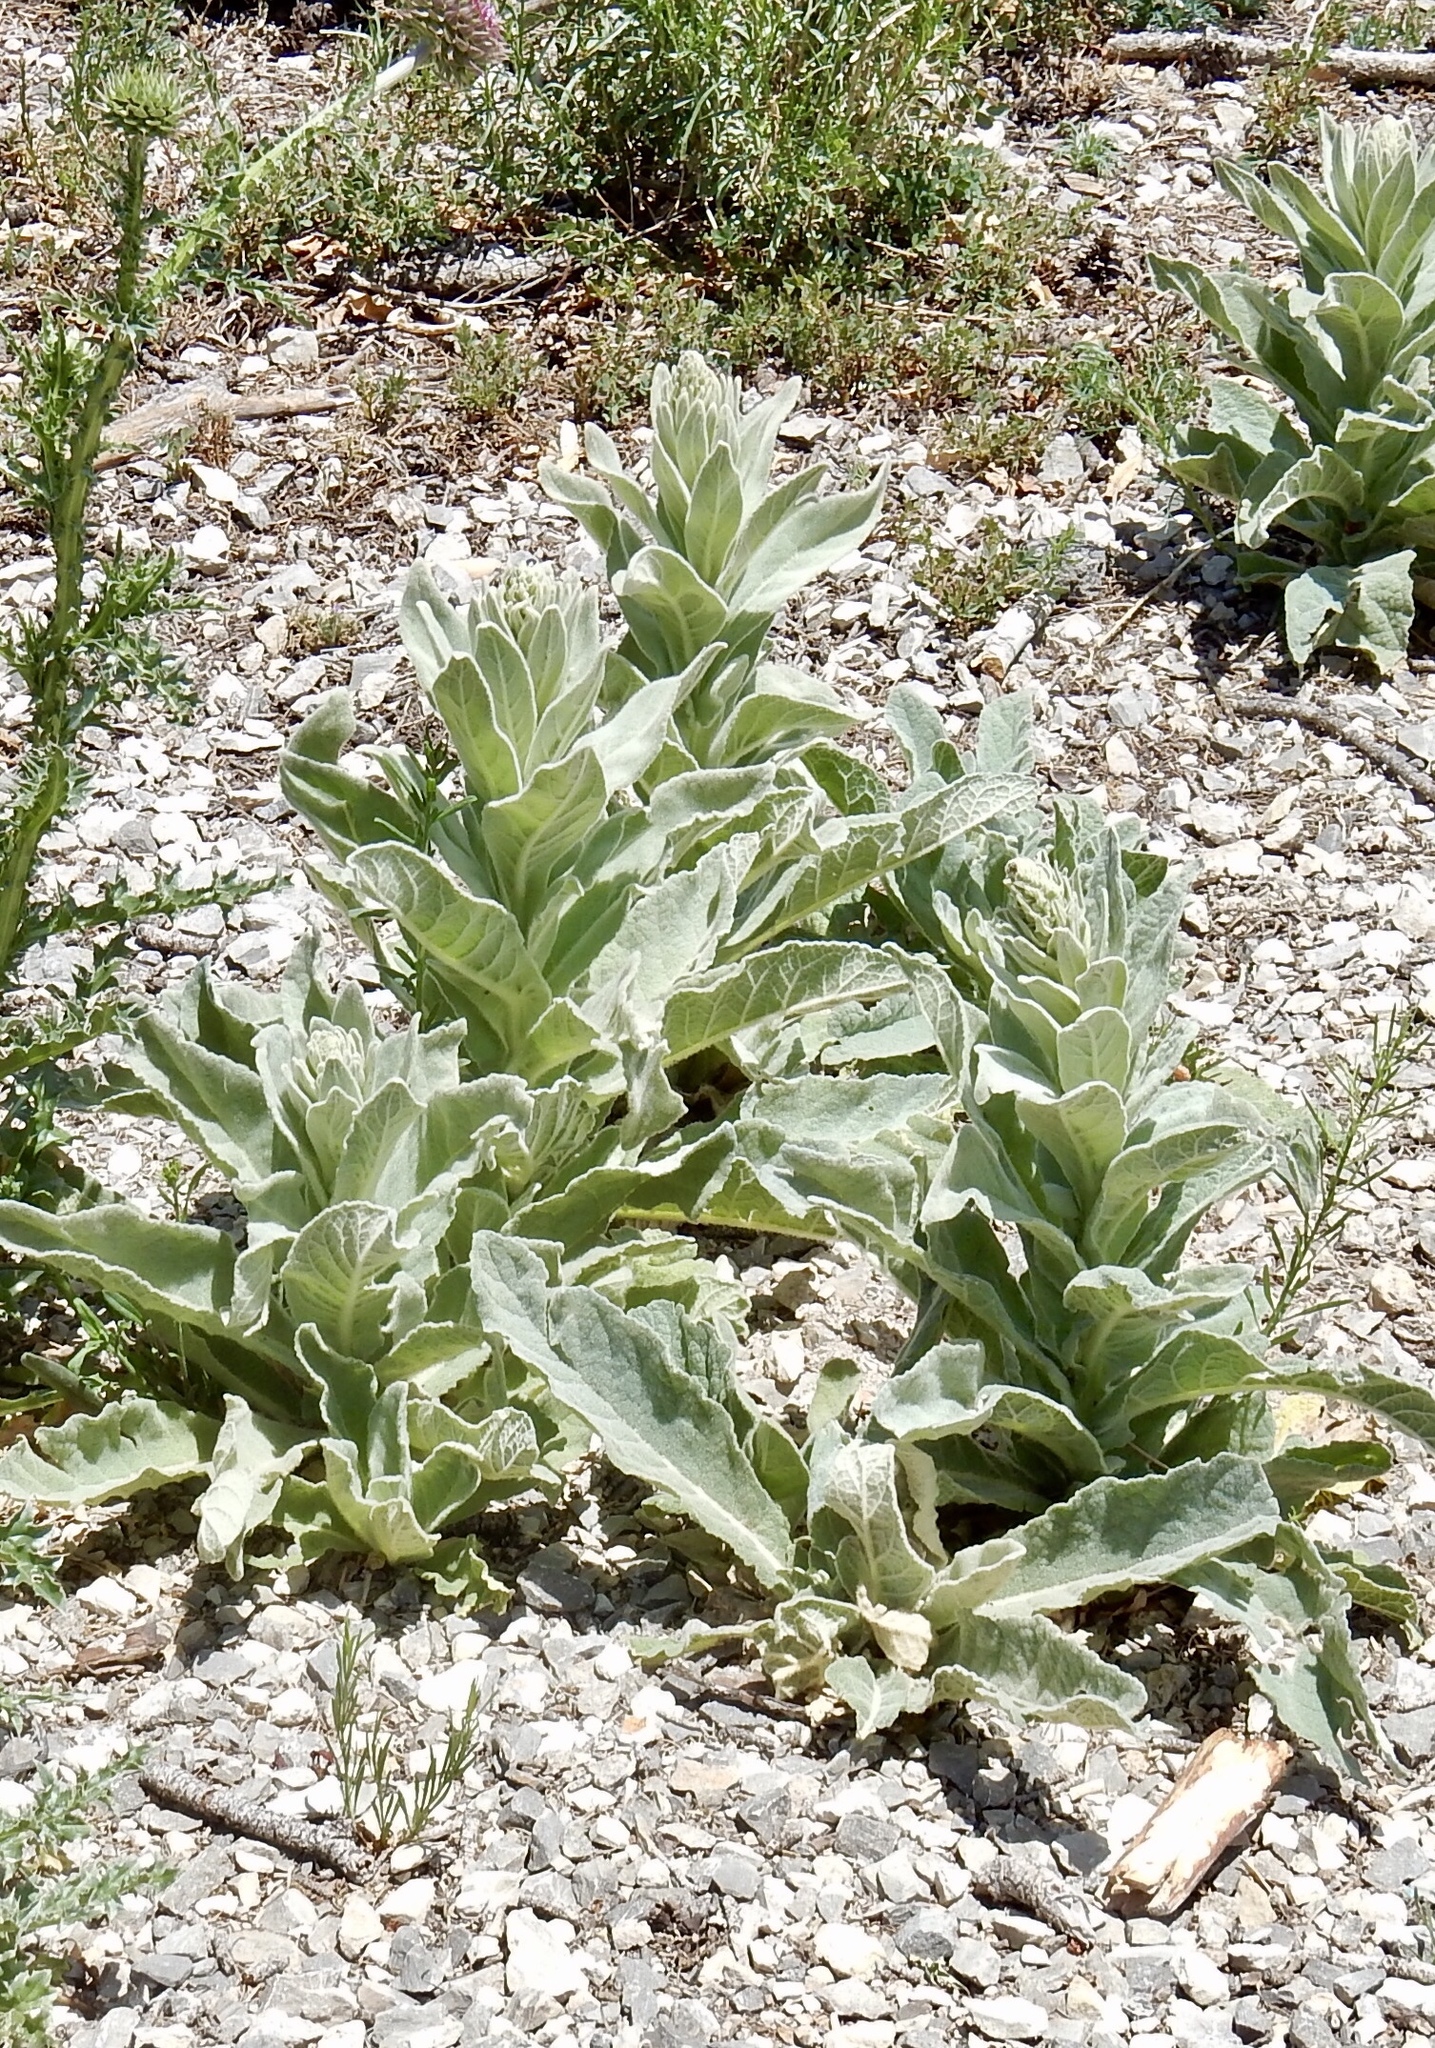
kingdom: Plantae
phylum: Tracheophyta
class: Magnoliopsida
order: Lamiales
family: Scrophulariaceae
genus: Verbascum
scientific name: Verbascum thapsus
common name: Common mullein
